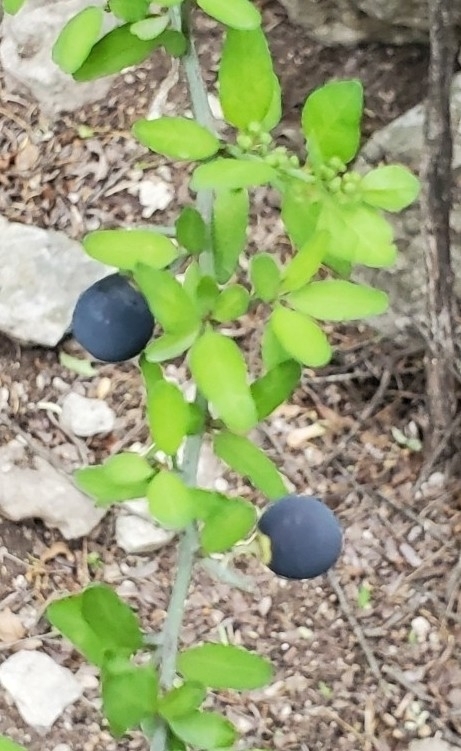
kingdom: Plantae
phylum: Tracheophyta
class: Magnoliopsida
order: Rosales
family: Rhamnaceae
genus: Sarcomphalus
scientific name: Sarcomphalus obtusifolius
